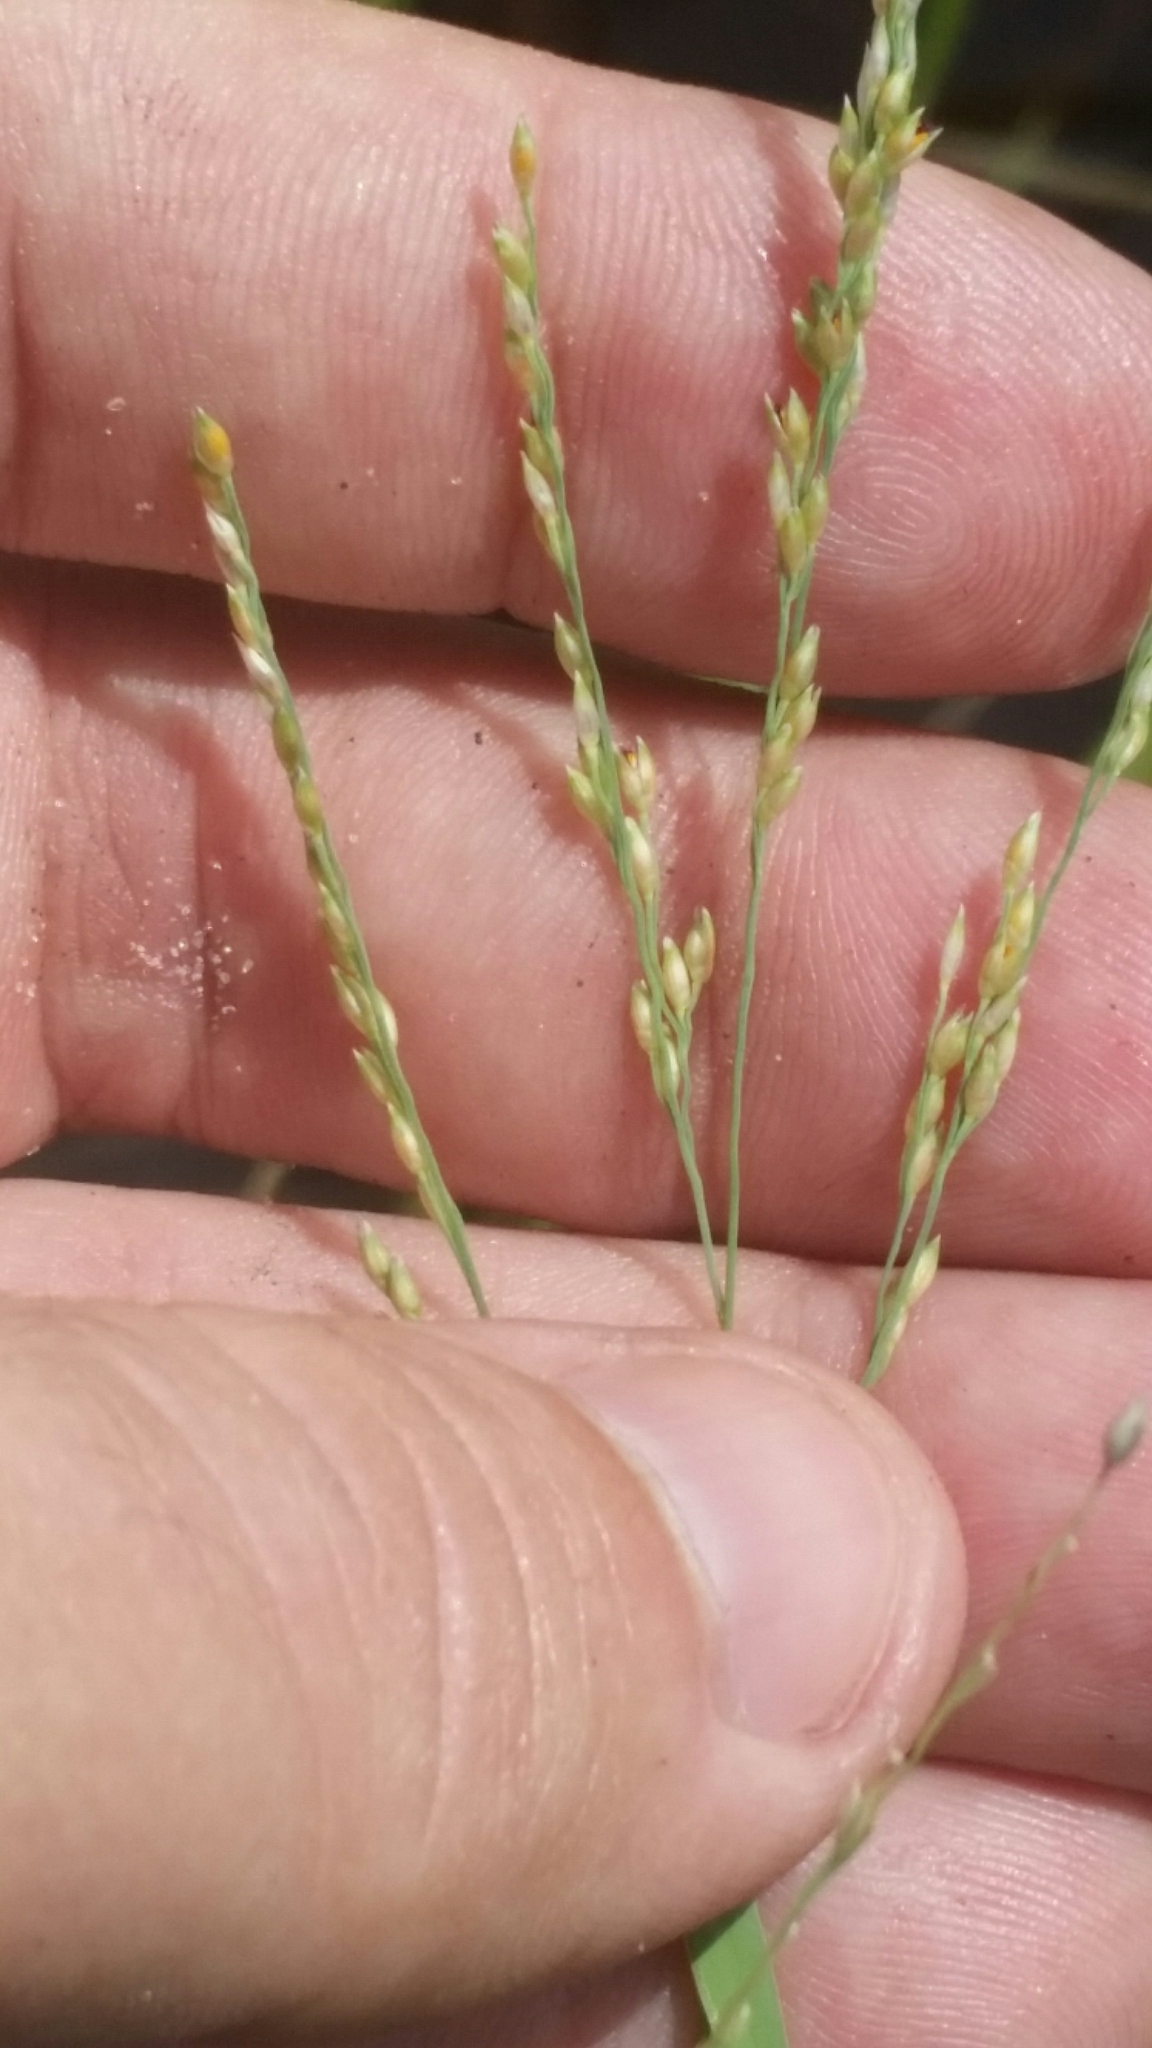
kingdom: Plantae
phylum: Tracheophyta
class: Liliopsida
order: Poales
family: Poaceae
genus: Panicum
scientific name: Panicum repens
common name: Torpedo grass
